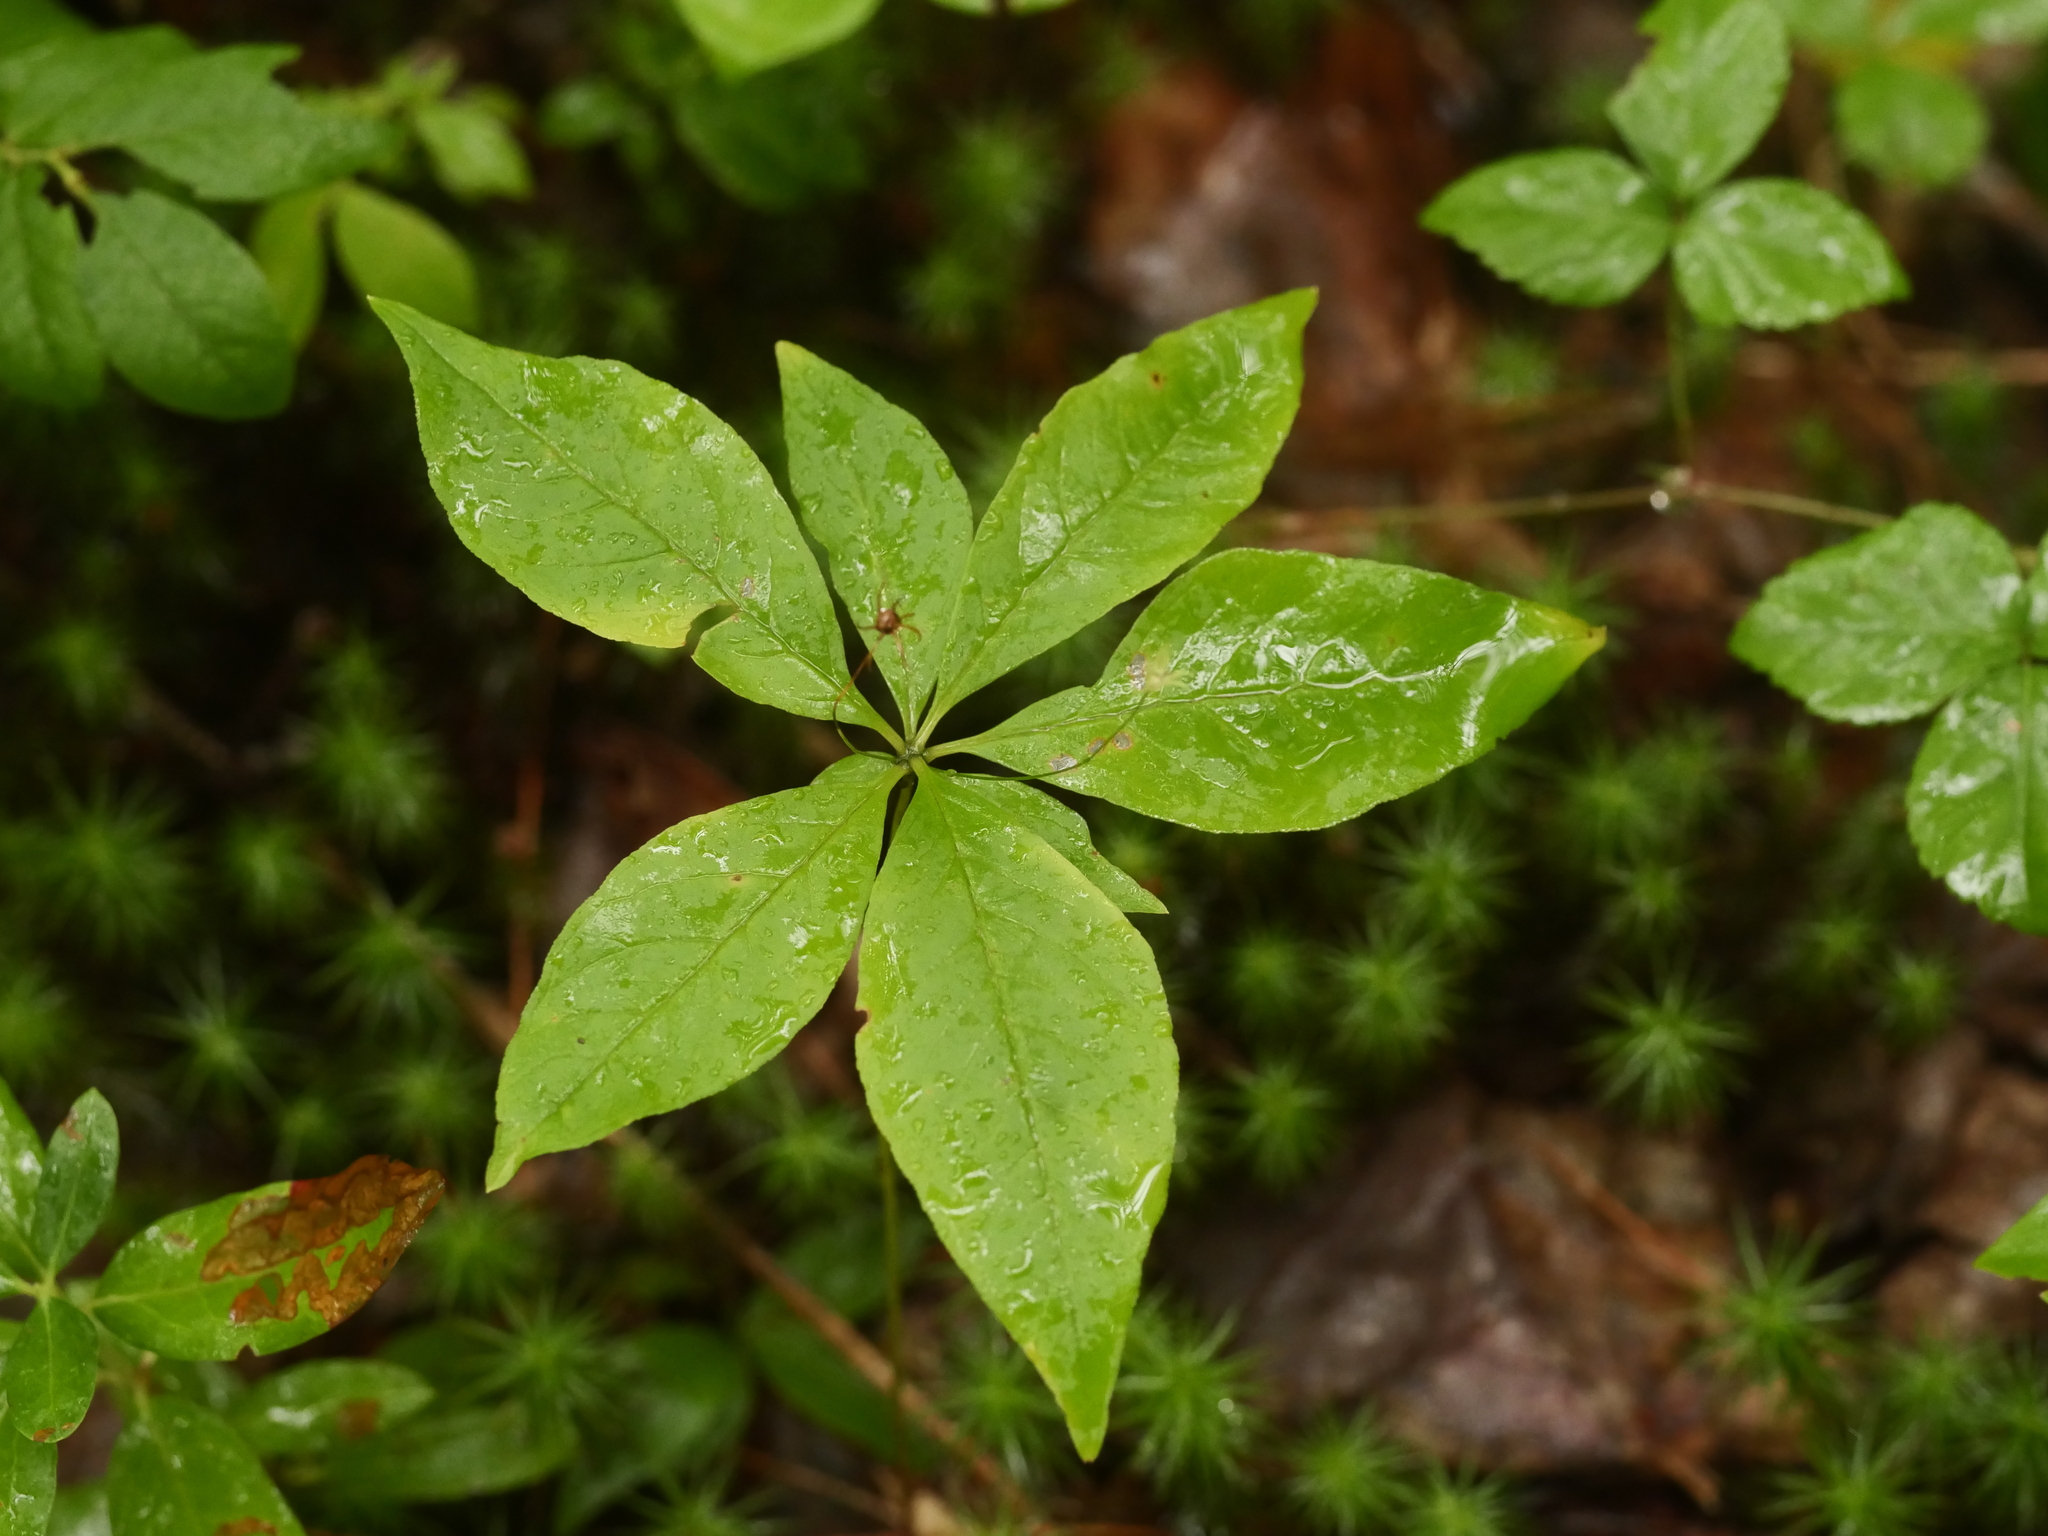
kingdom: Plantae
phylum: Tracheophyta
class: Magnoliopsida
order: Ericales
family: Primulaceae
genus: Lysimachia
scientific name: Lysimachia borealis
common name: American starflower
